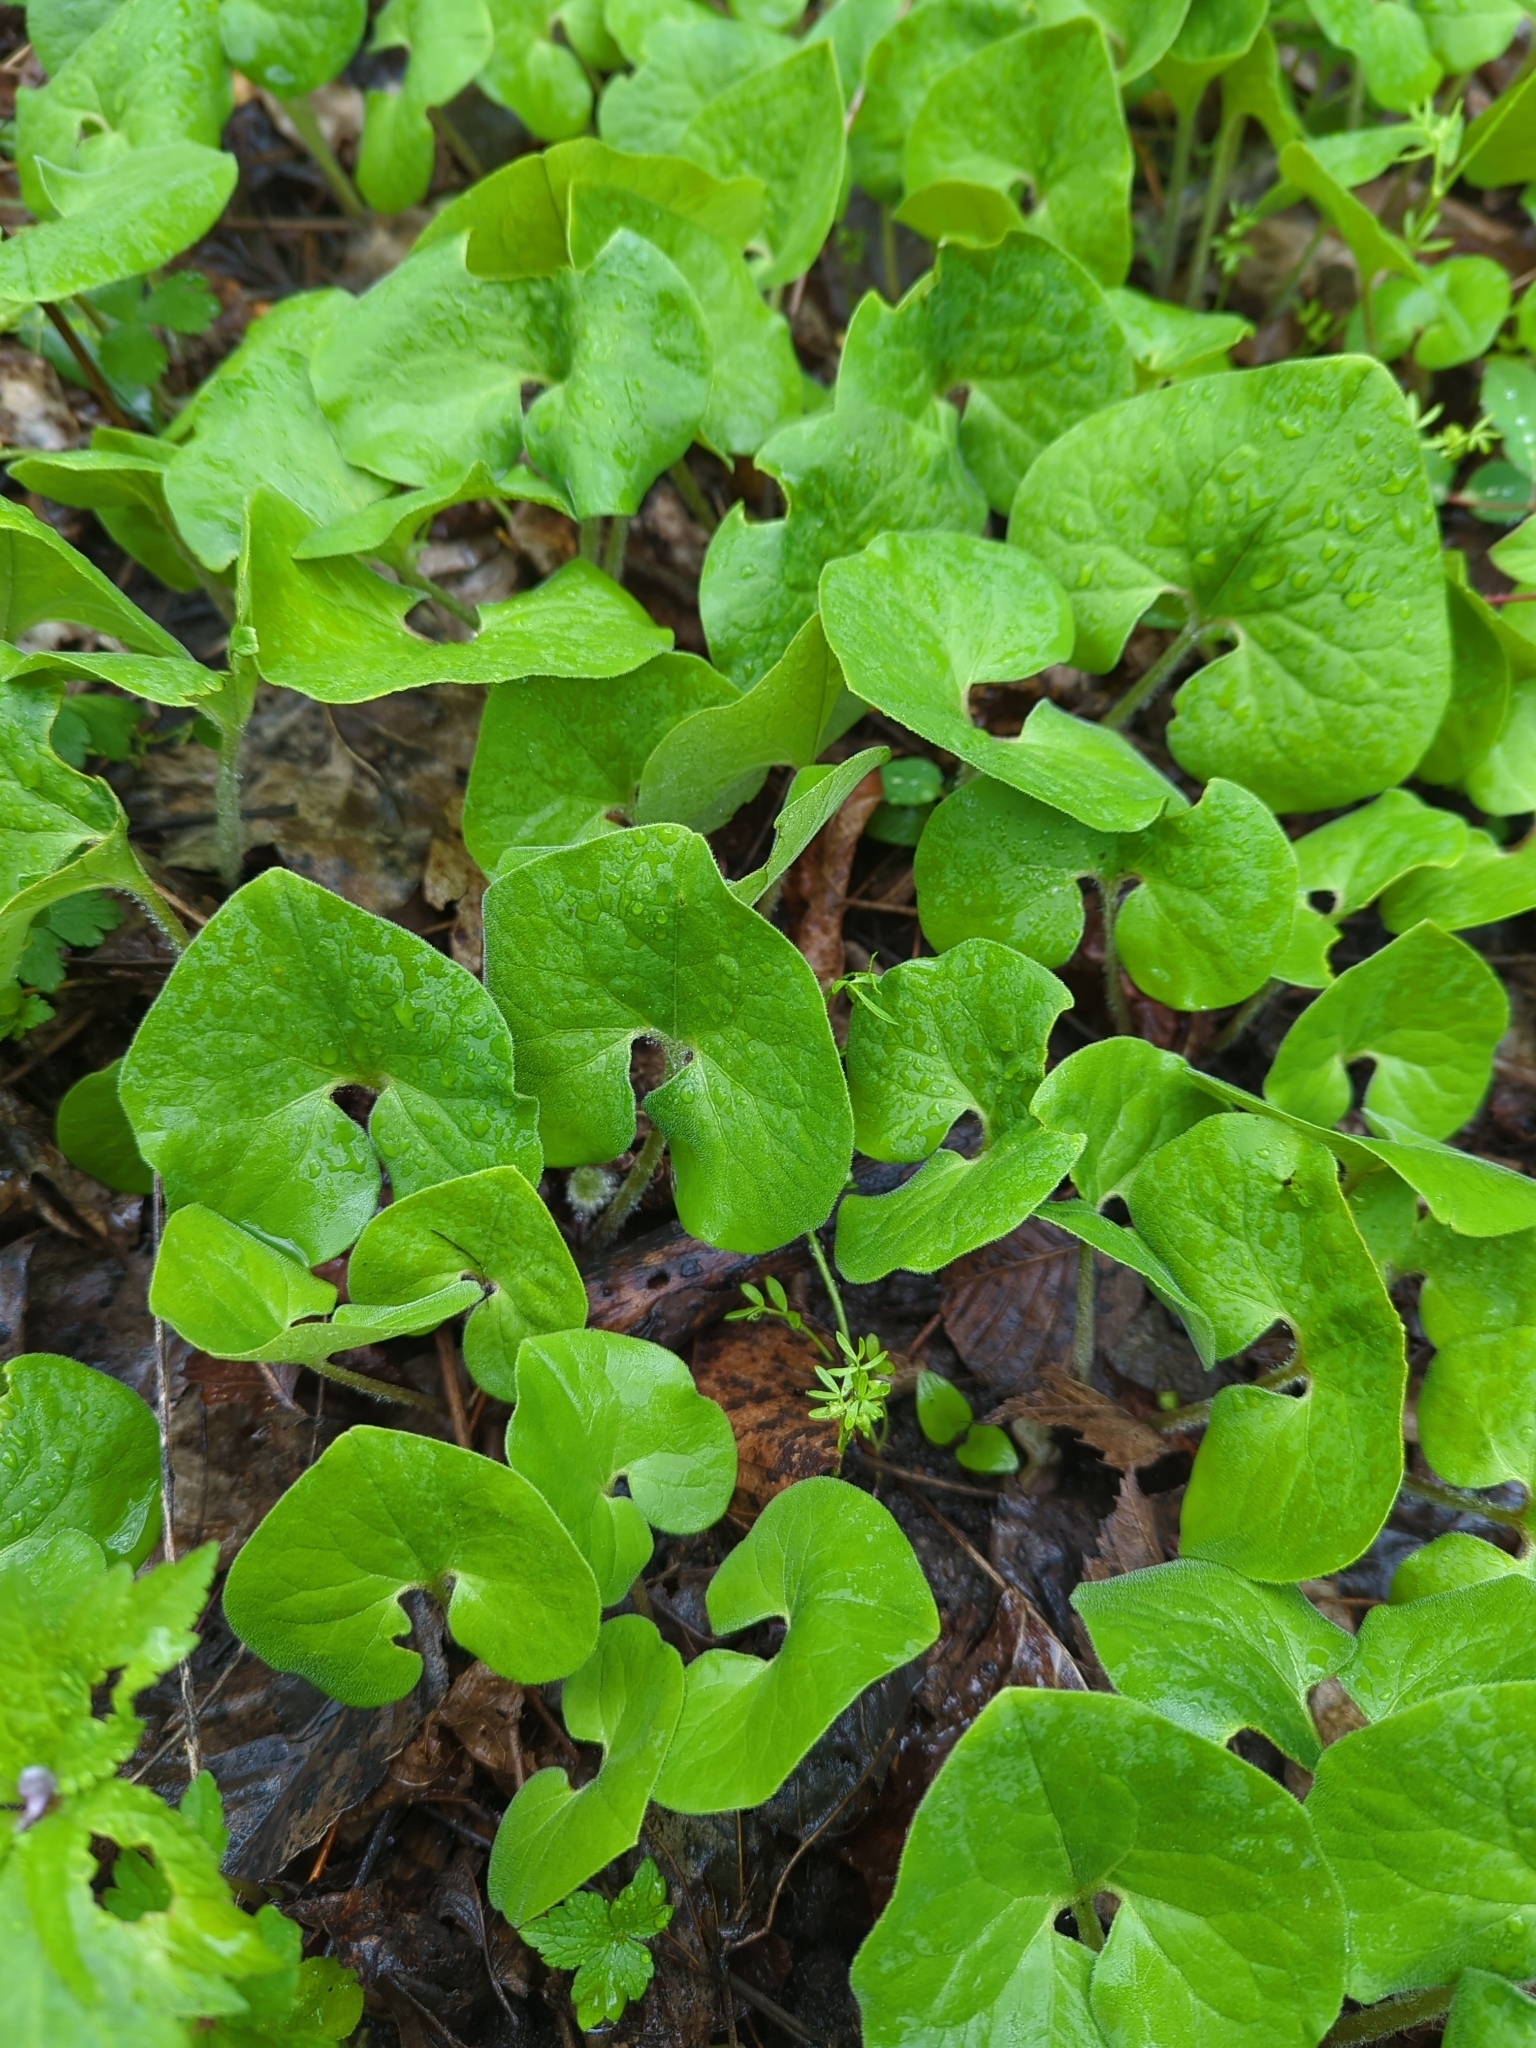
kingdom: Plantae
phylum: Tracheophyta
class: Magnoliopsida
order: Piperales
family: Aristolochiaceae
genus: Asarum
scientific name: Asarum canadense
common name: Wild ginger
